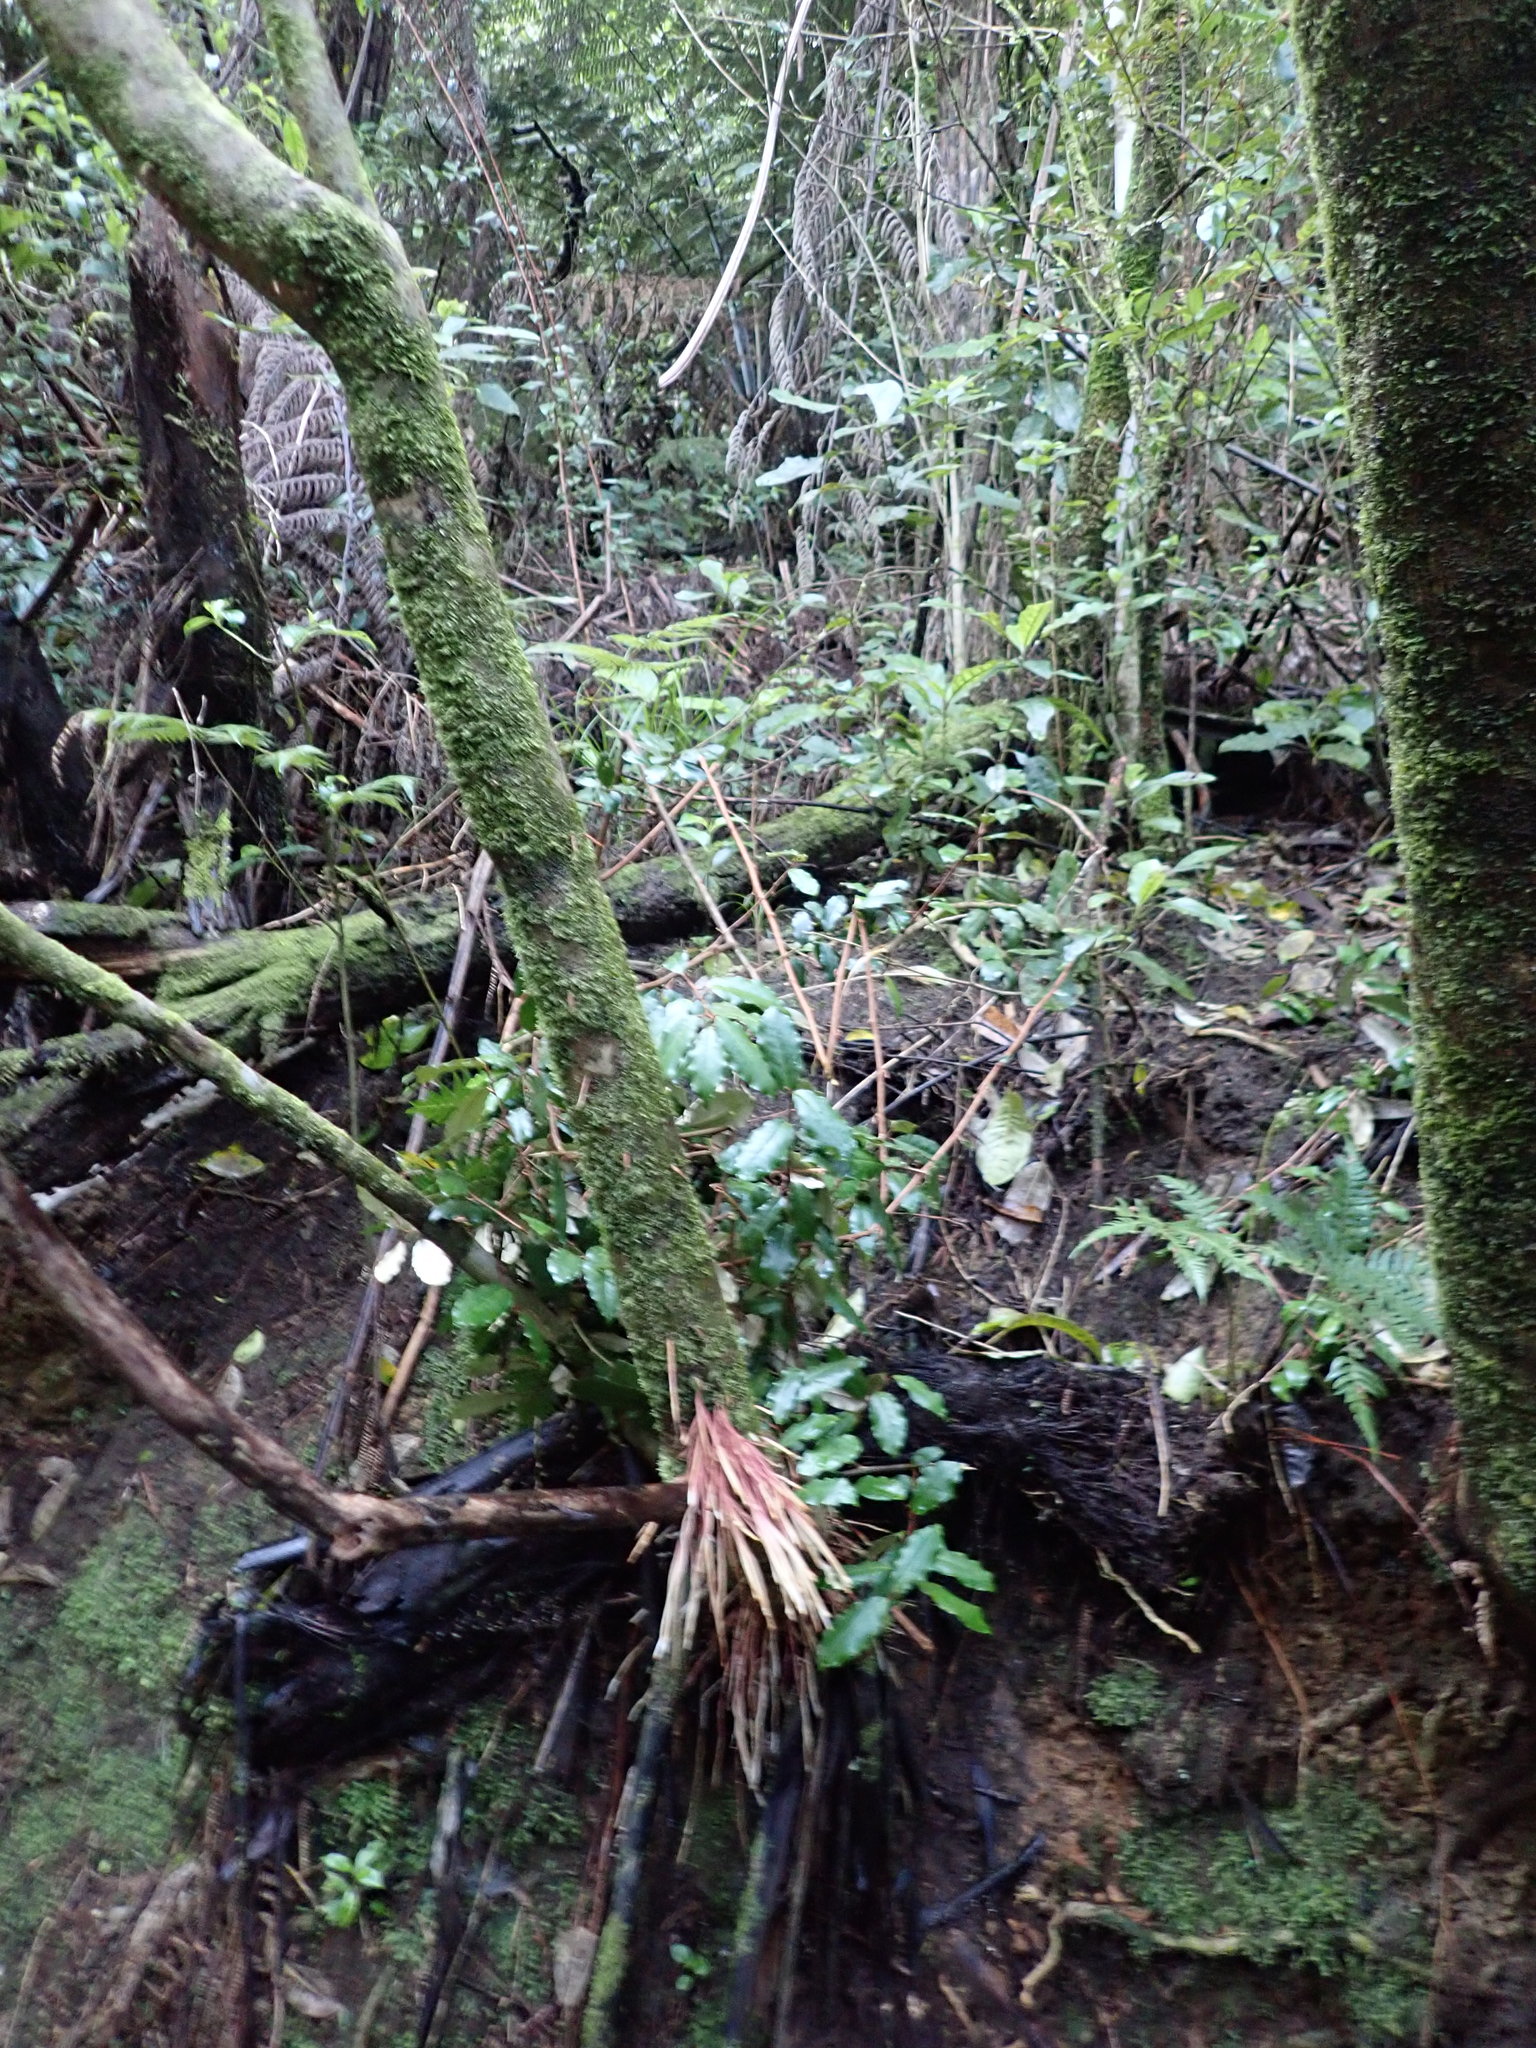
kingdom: Plantae
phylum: Tracheophyta
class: Magnoliopsida
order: Rosales
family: Elaeagnaceae
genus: Elaeagnus
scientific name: Elaeagnus reflexa
